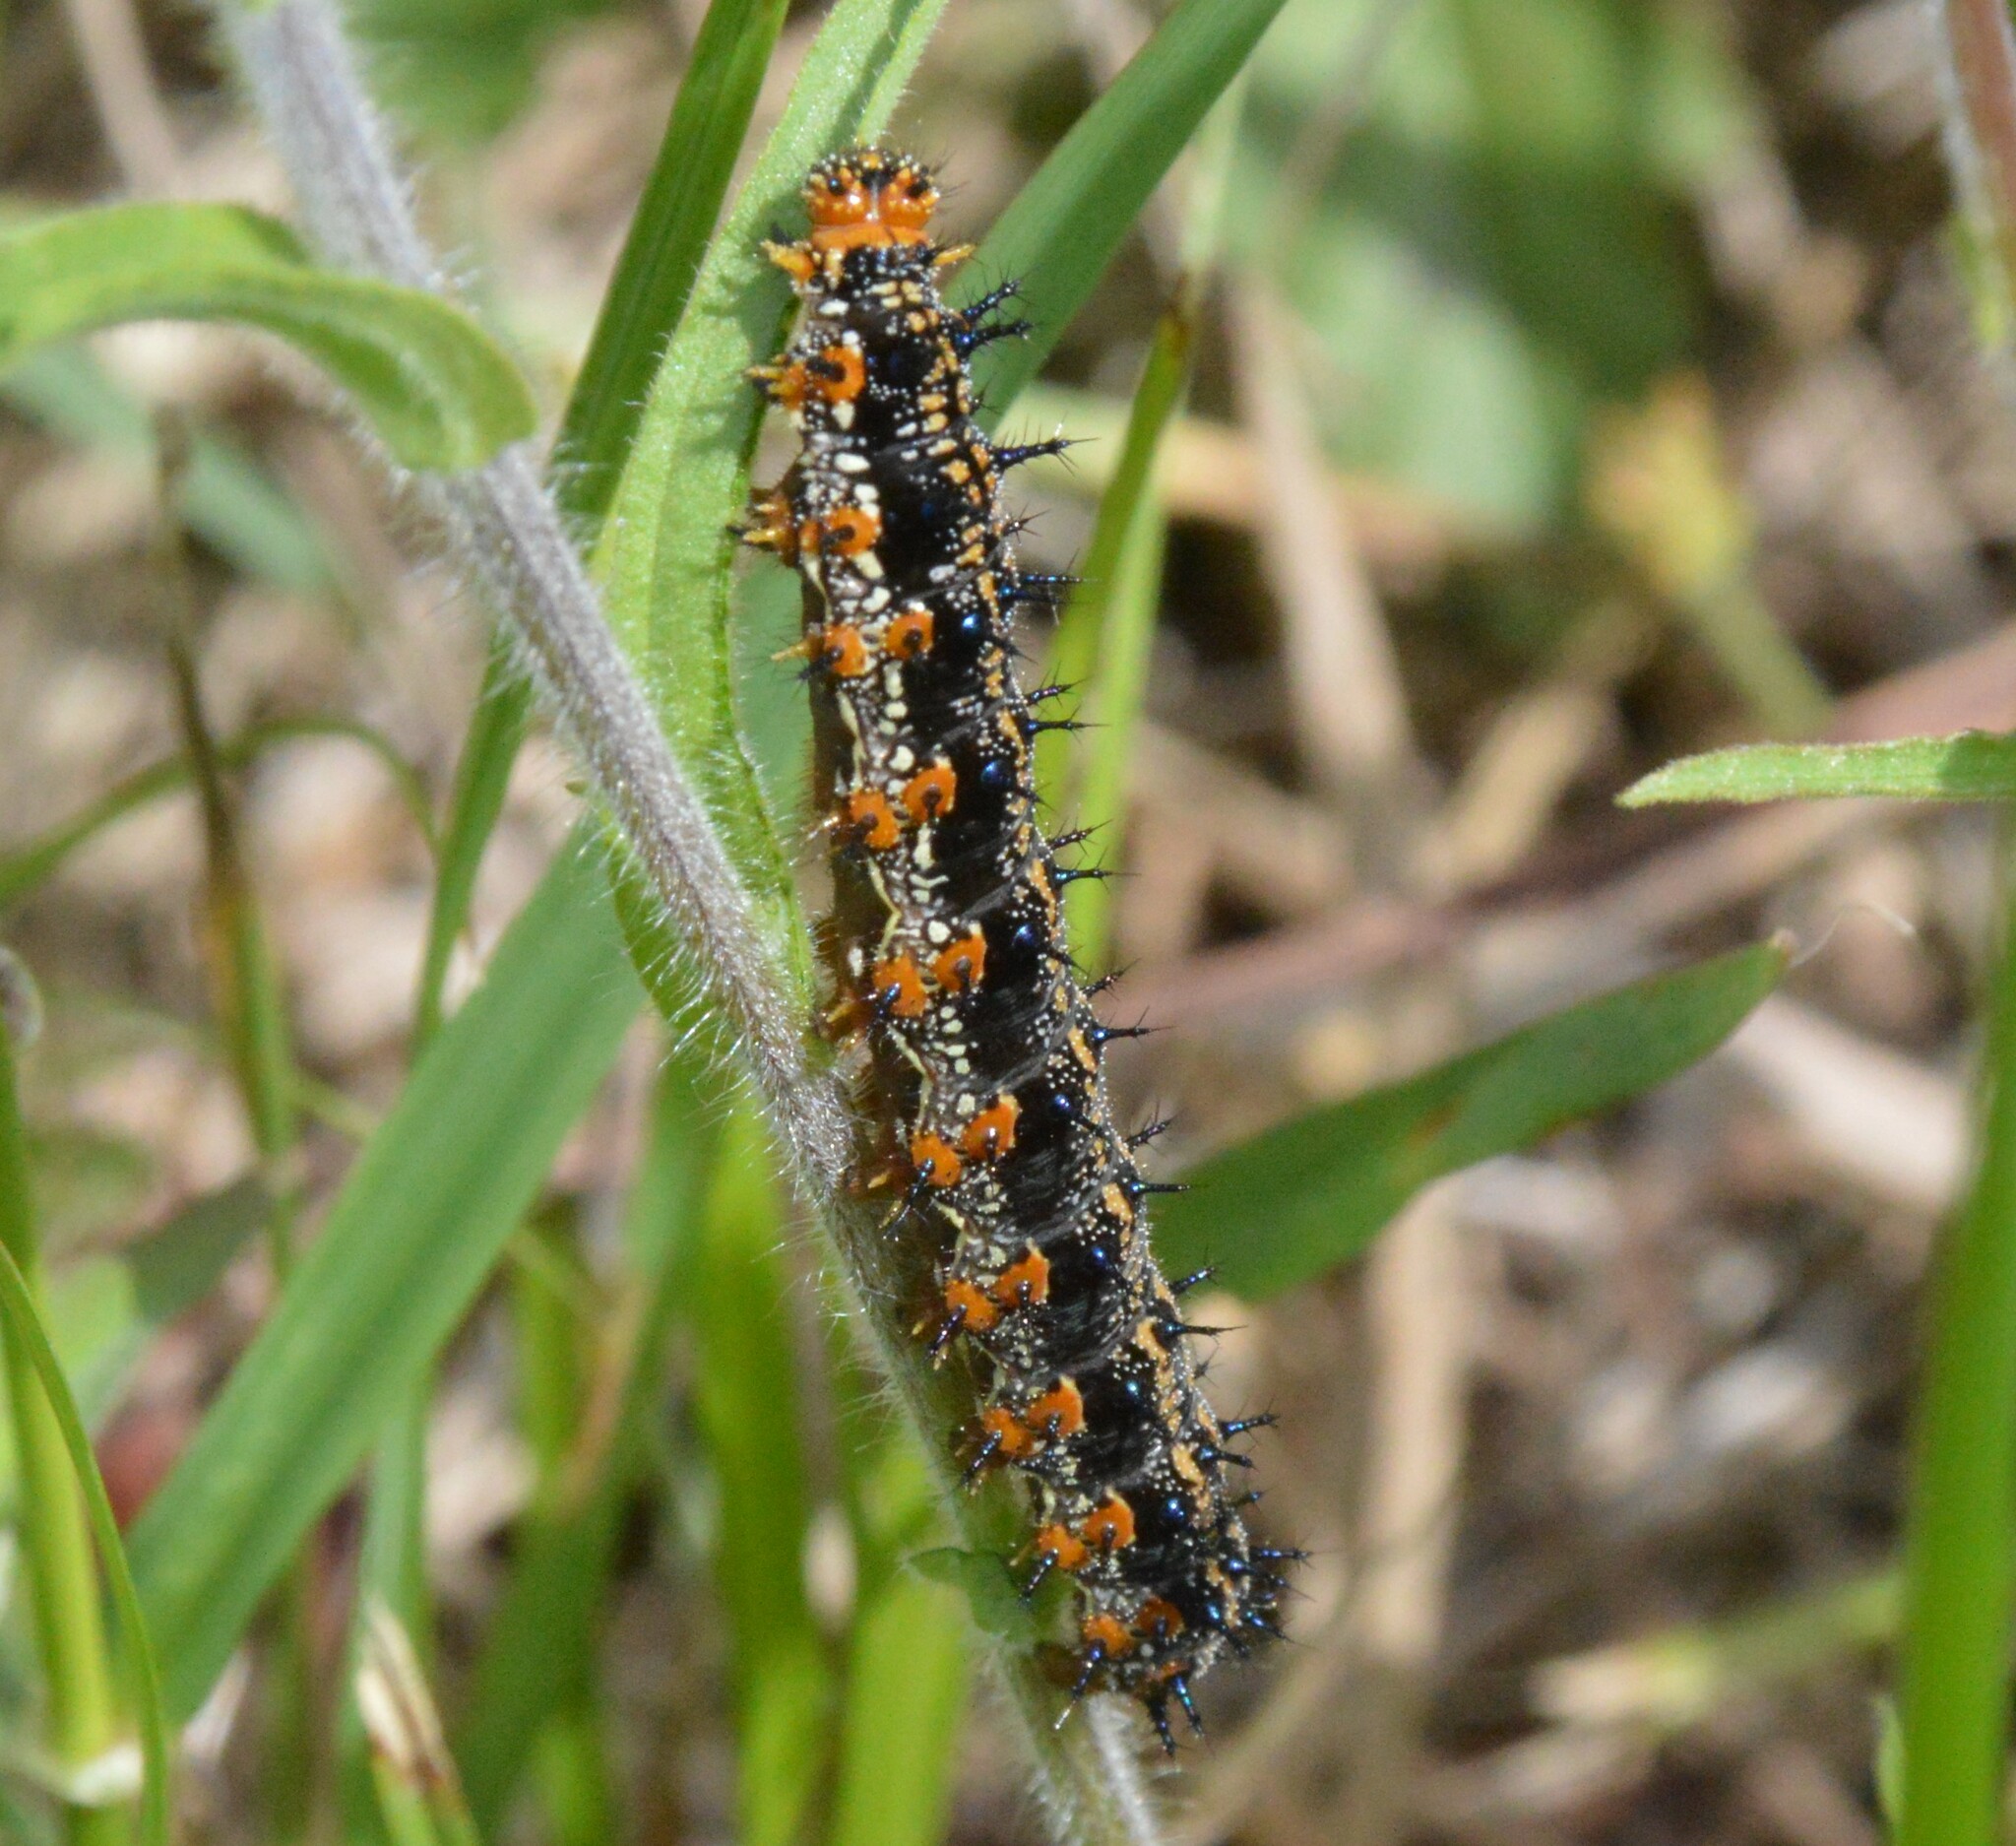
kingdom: Animalia
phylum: Arthropoda
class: Insecta
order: Lepidoptera
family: Nymphalidae
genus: Junonia
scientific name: Junonia coenia
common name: Common buckeye
